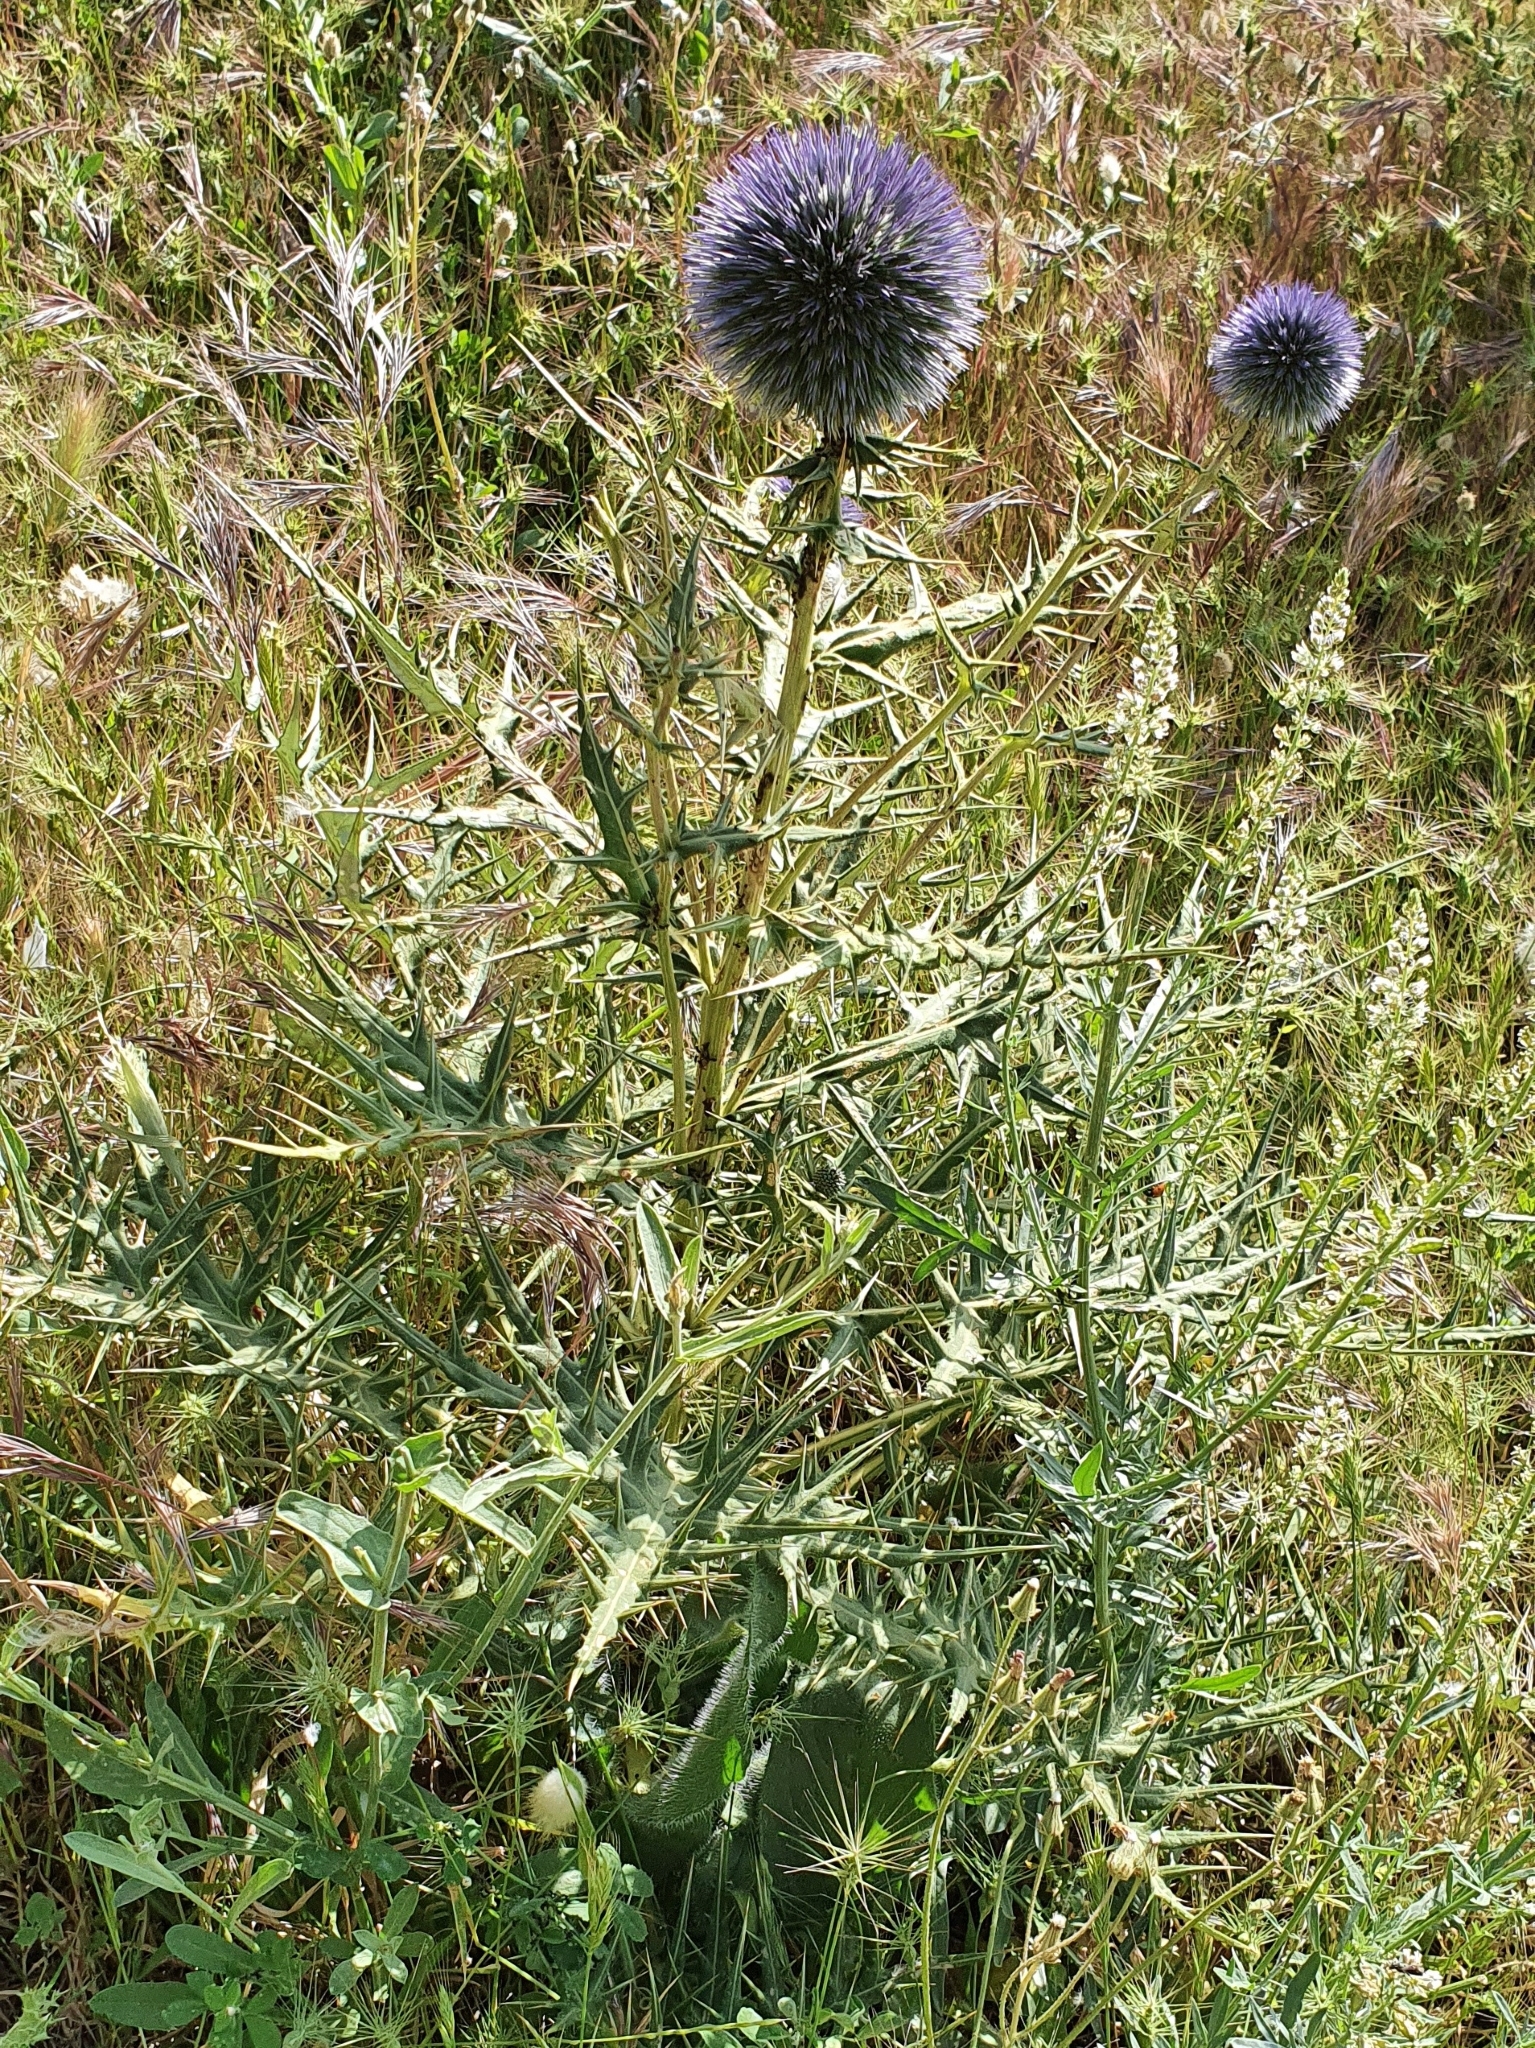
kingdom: Plantae
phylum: Tracheophyta
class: Magnoliopsida
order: Asterales
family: Asteraceae
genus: Echinops
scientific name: Echinops bovei
